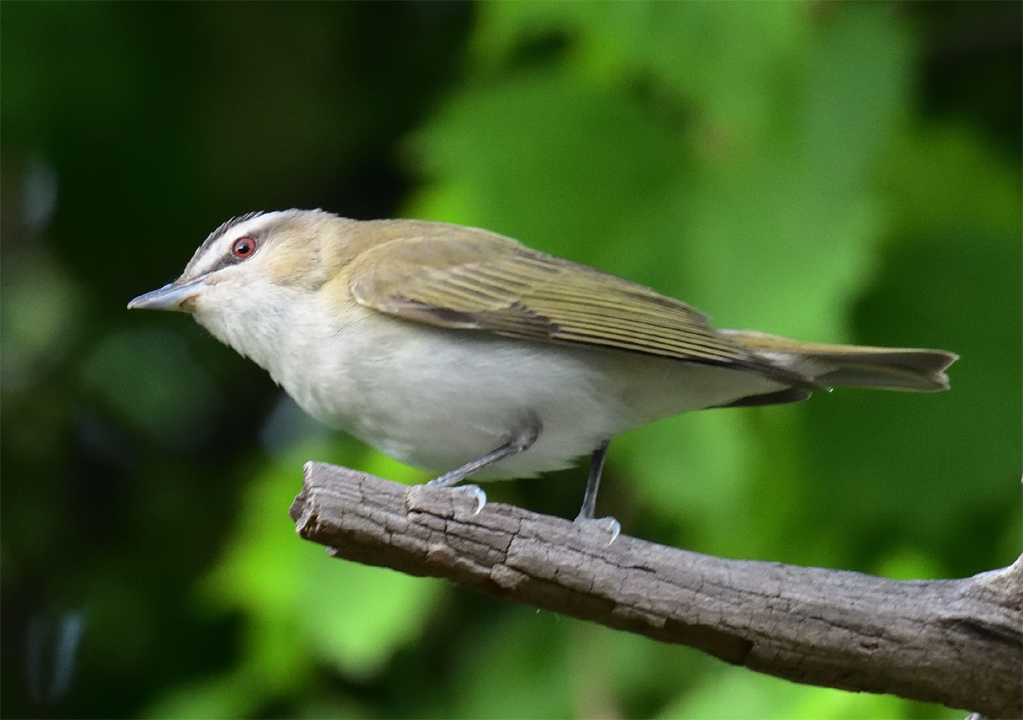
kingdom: Animalia
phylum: Chordata
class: Aves
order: Passeriformes
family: Vireonidae
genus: Vireo
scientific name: Vireo olivaceus
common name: Red-eyed vireo
